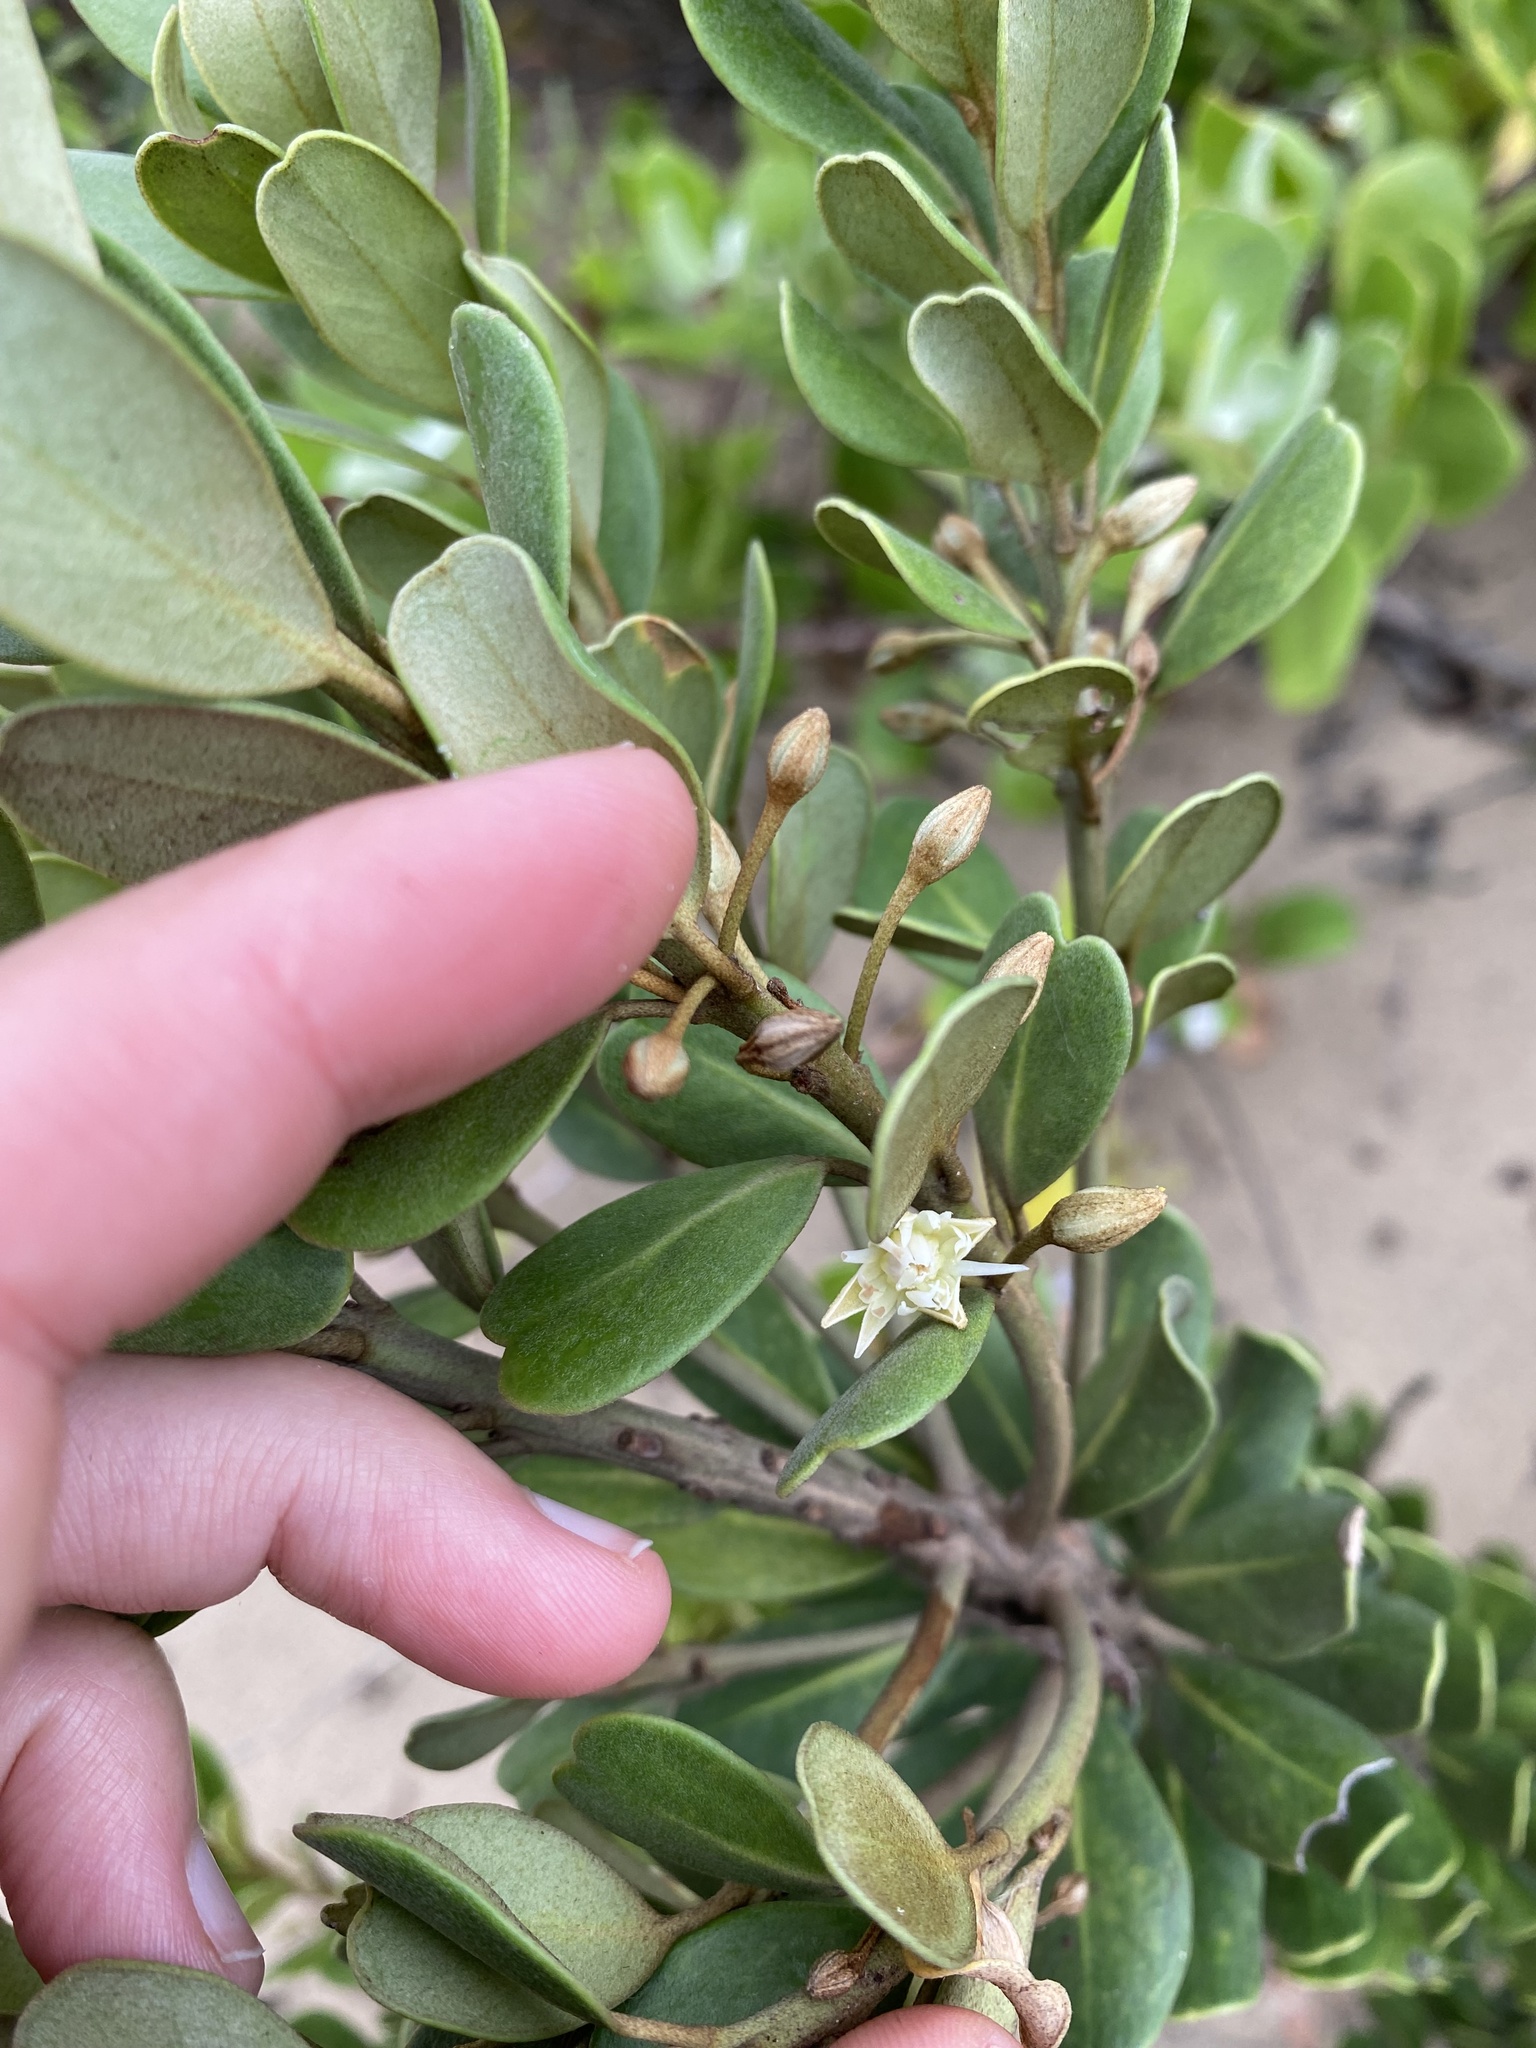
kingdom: Plantae
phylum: Tracheophyta
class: Magnoliopsida
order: Ericales
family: Sapotaceae
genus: Mimusops
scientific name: Mimusops caffra
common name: Coastal red milkwood
